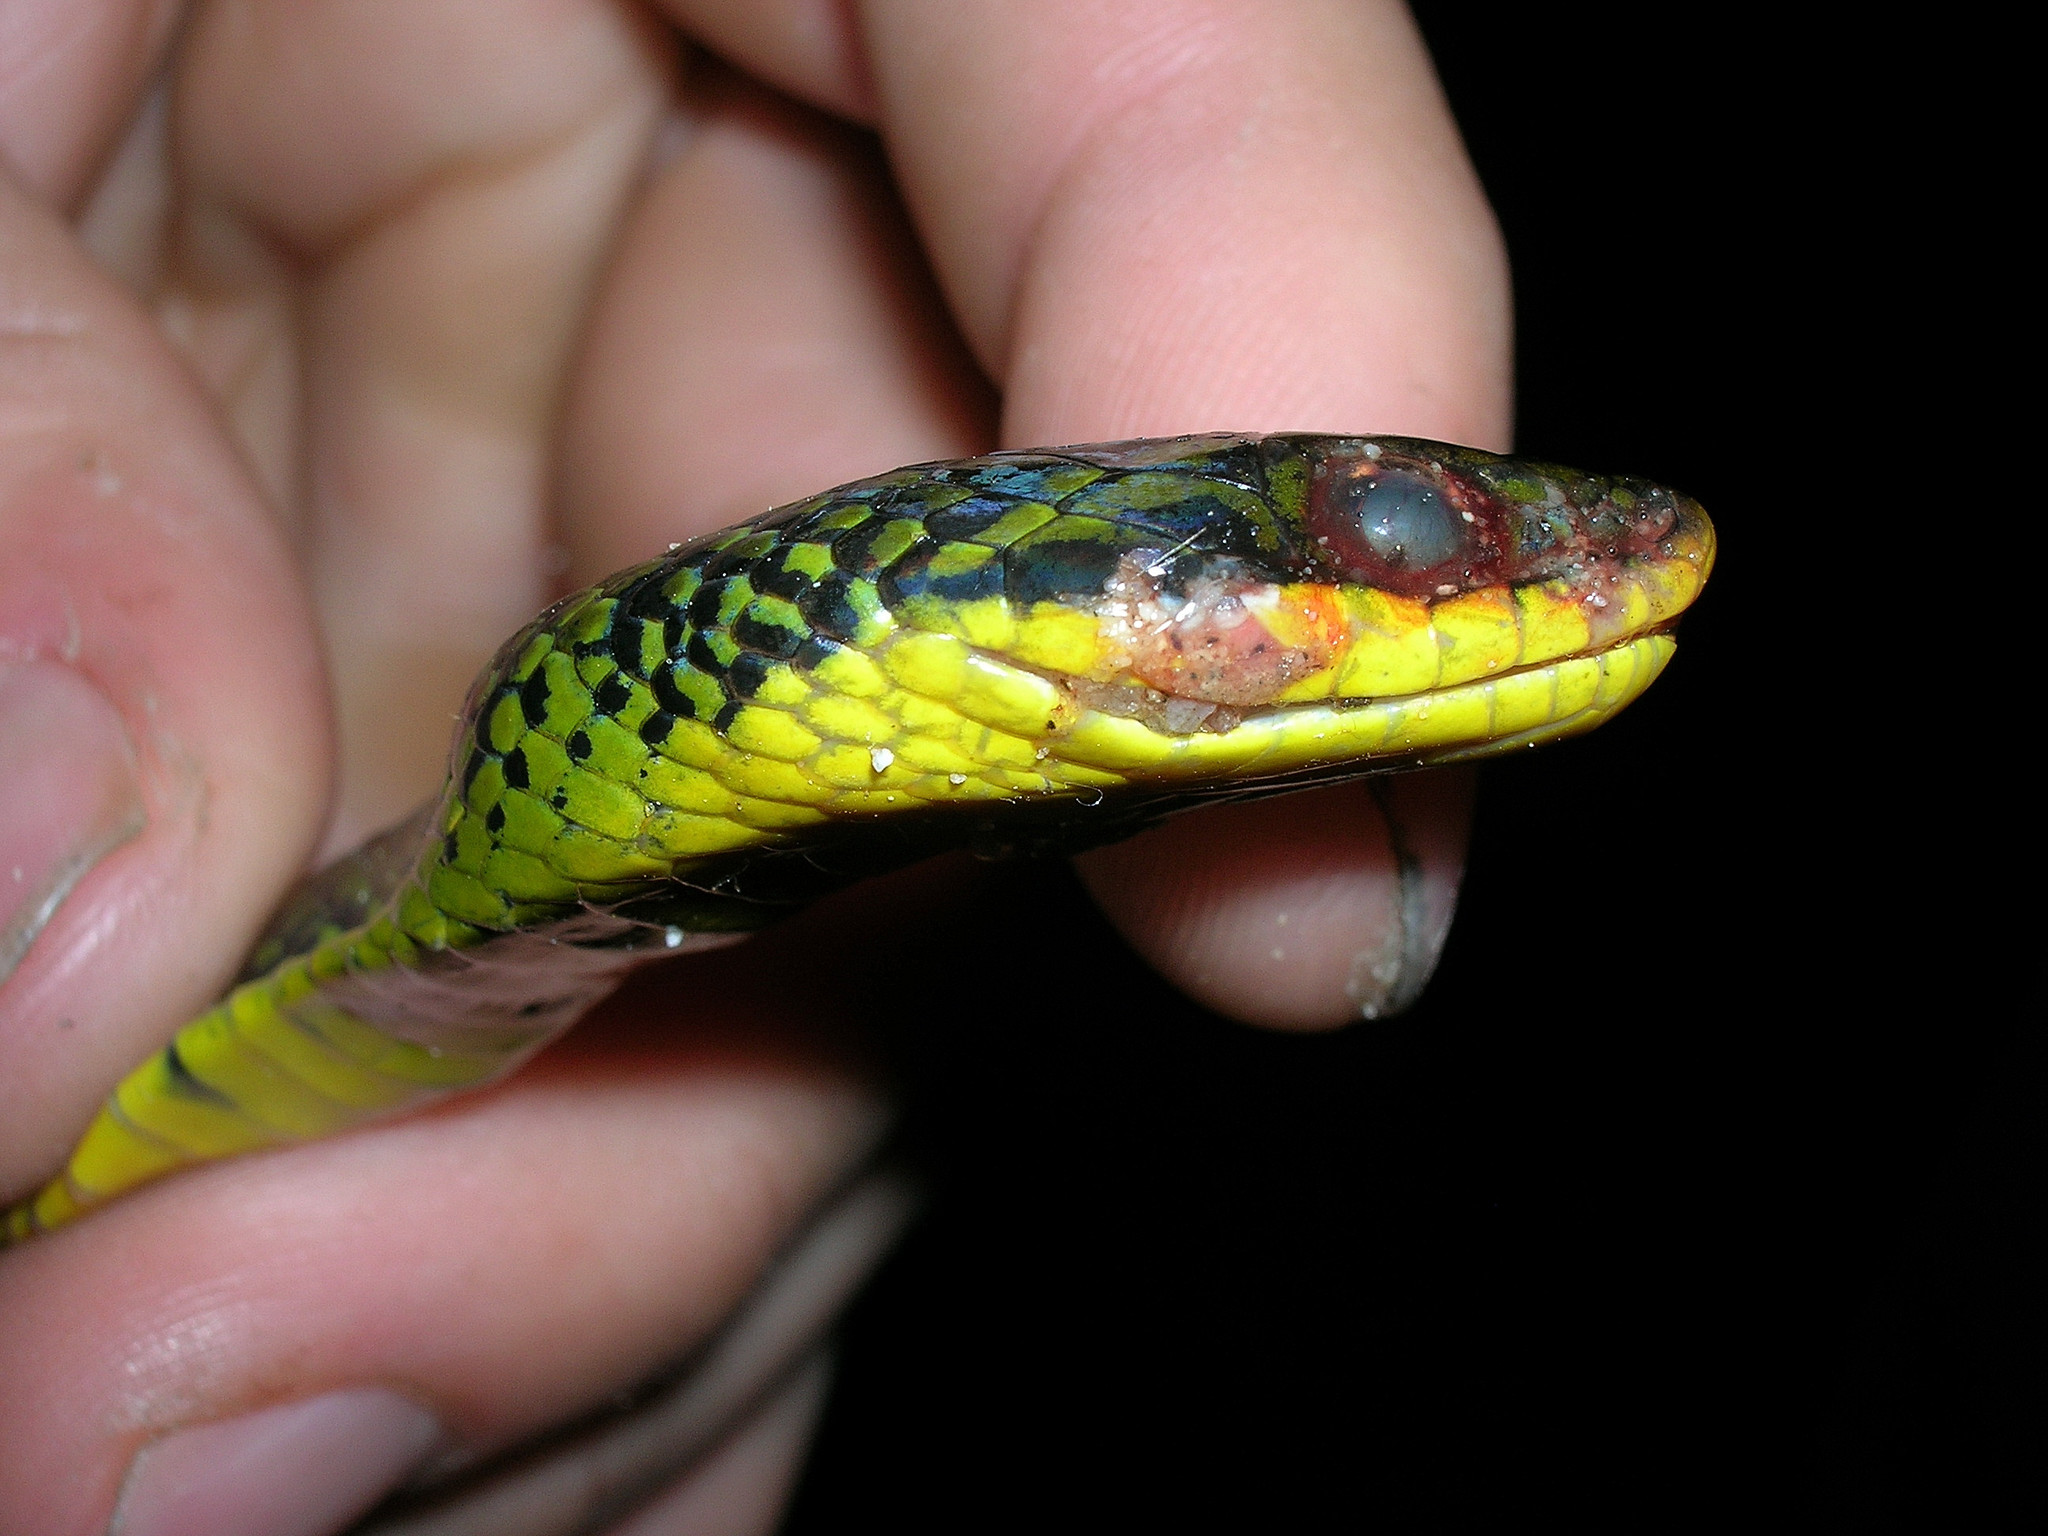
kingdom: Animalia
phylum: Chordata
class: Squamata
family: Colubridae
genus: Erythrolamprus
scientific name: Erythrolamprus reginae
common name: Royal ground snake
